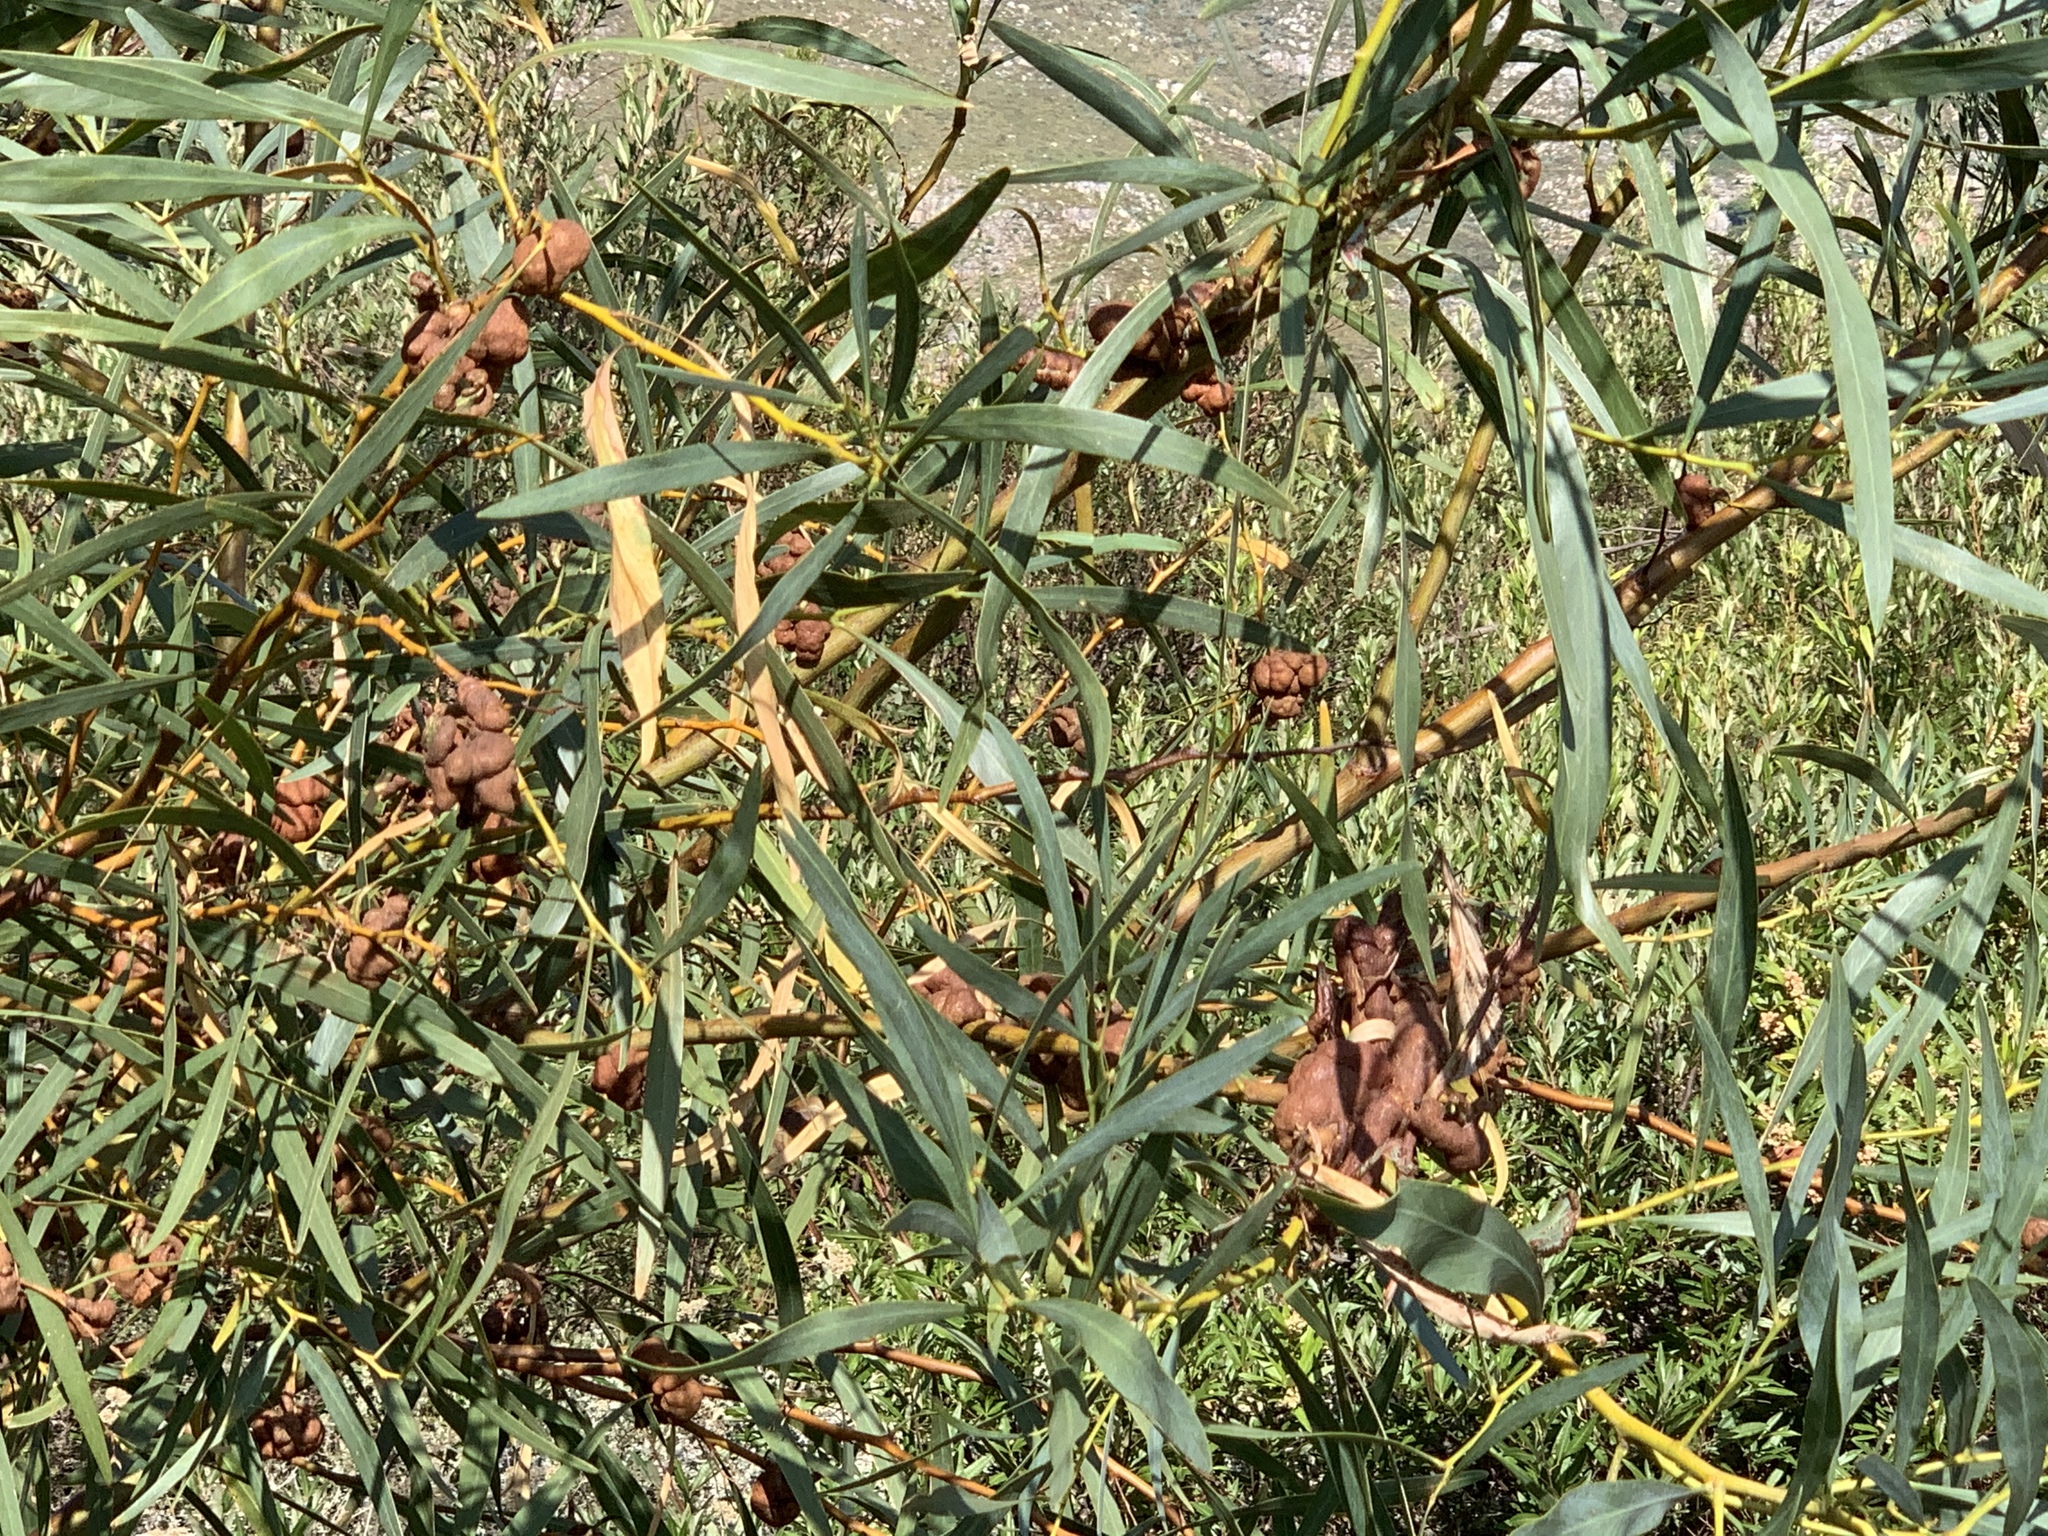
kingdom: Fungi
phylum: Basidiomycota
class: Pucciniomycetes
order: Pucciniales
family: Uromycladiaceae
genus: Uromycladium
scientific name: Uromycladium morrisii
